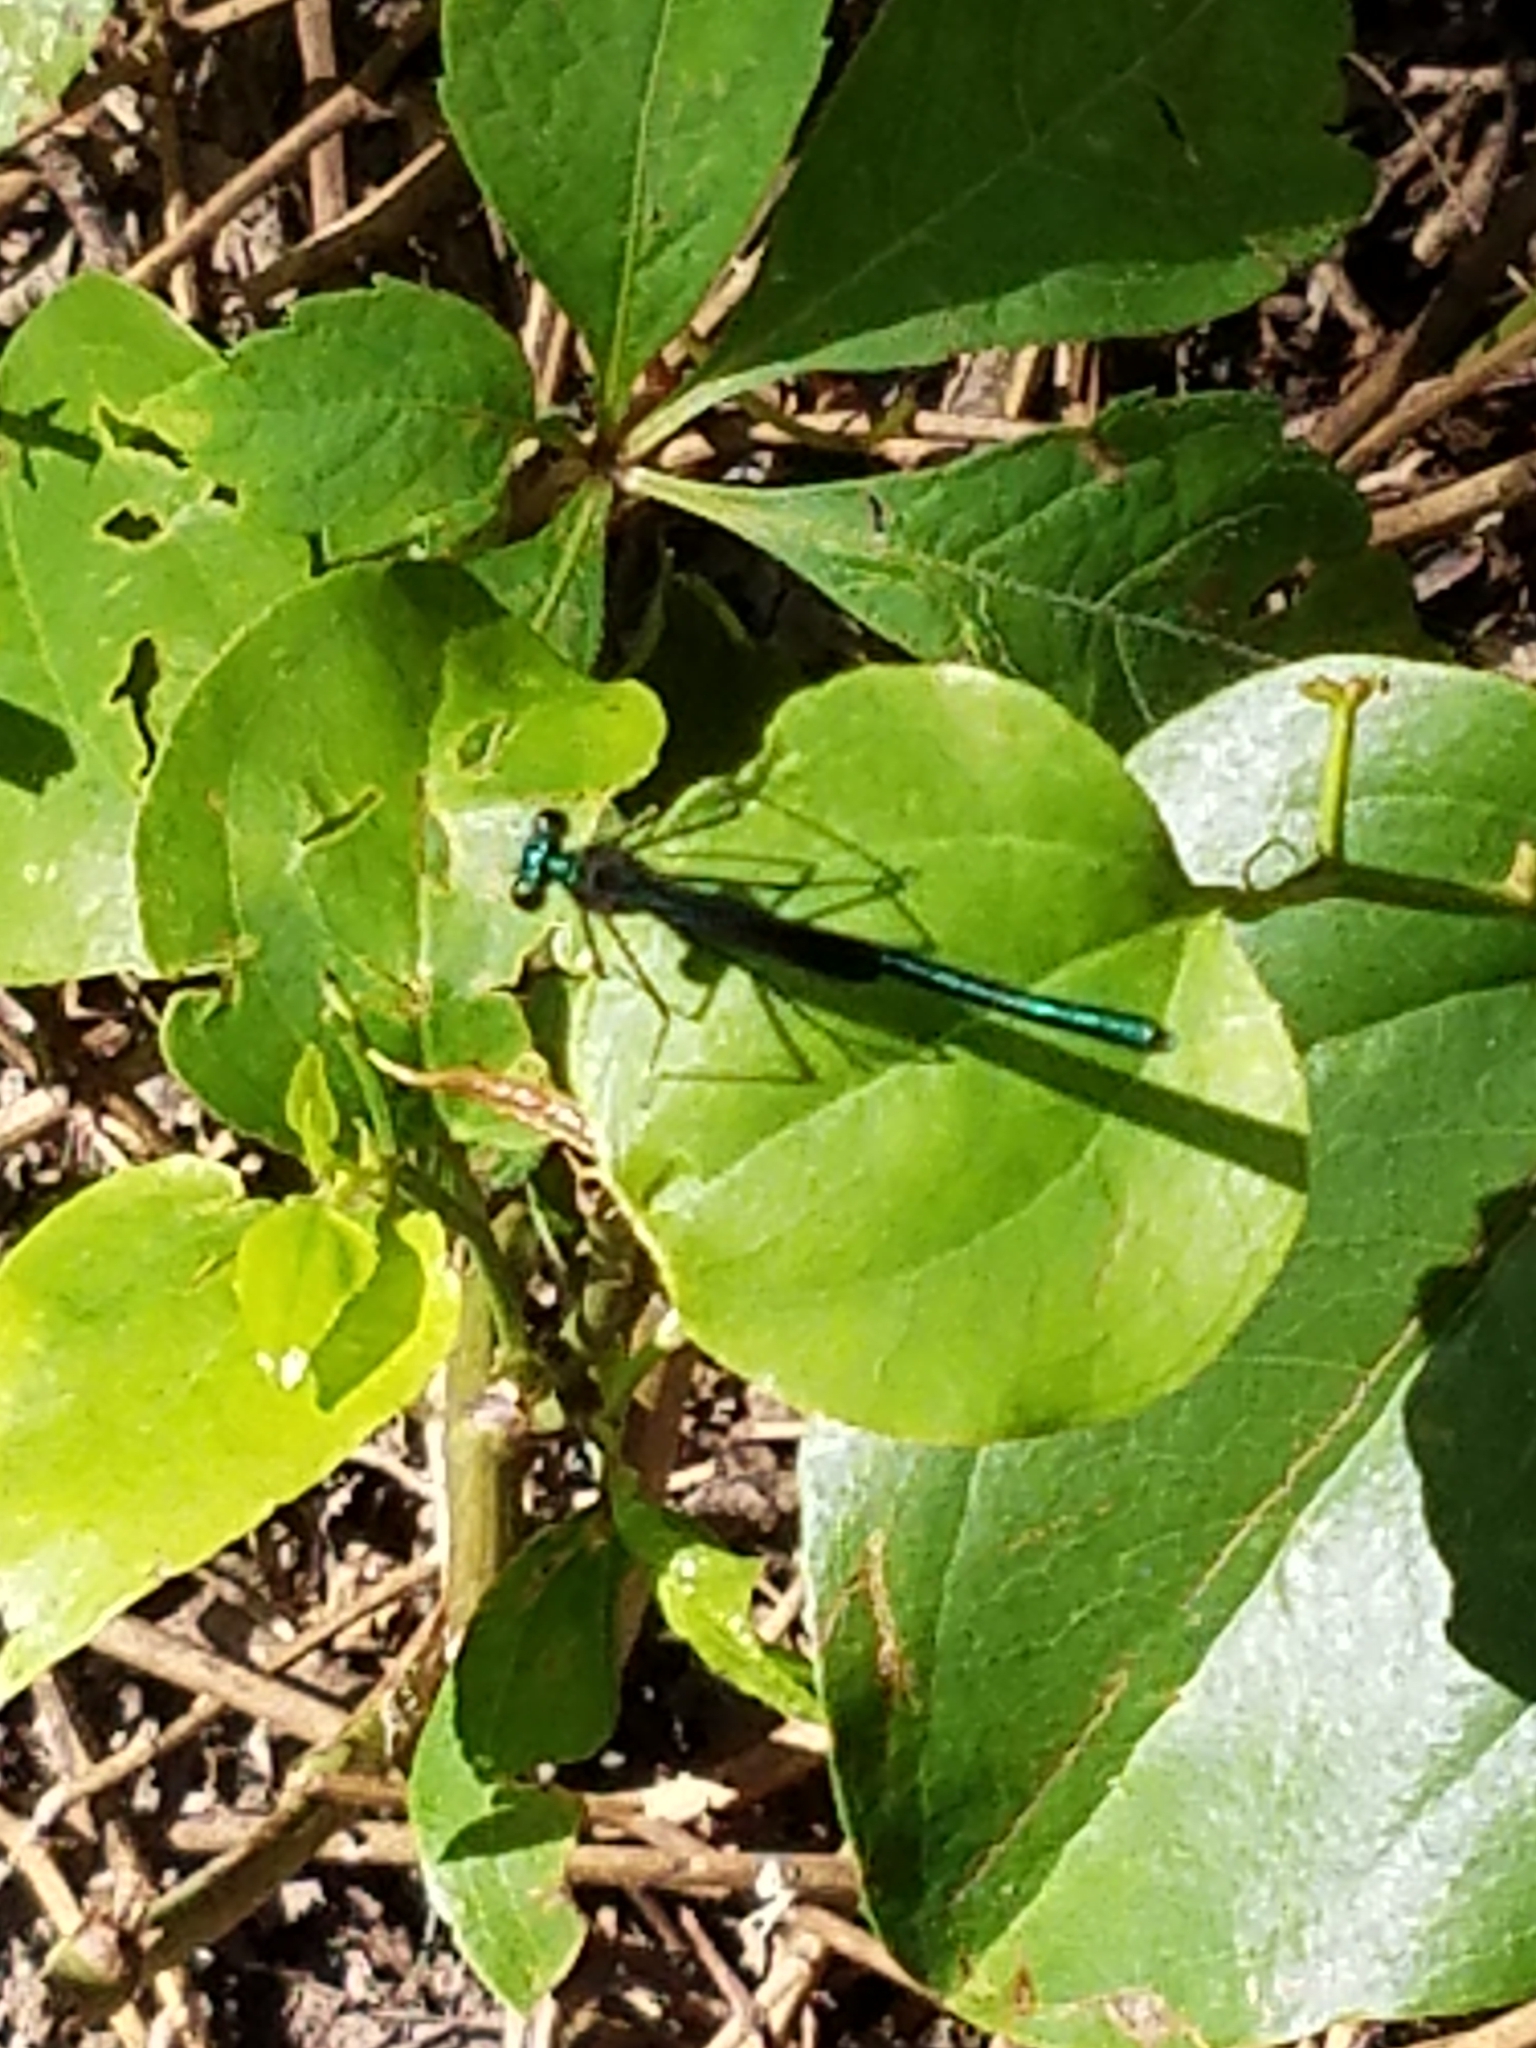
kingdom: Animalia
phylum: Arthropoda
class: Insecta
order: Odonata
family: Calopterygidae
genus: Calopteryx
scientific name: Calopteryx maculata
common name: Ebony jewelwing
